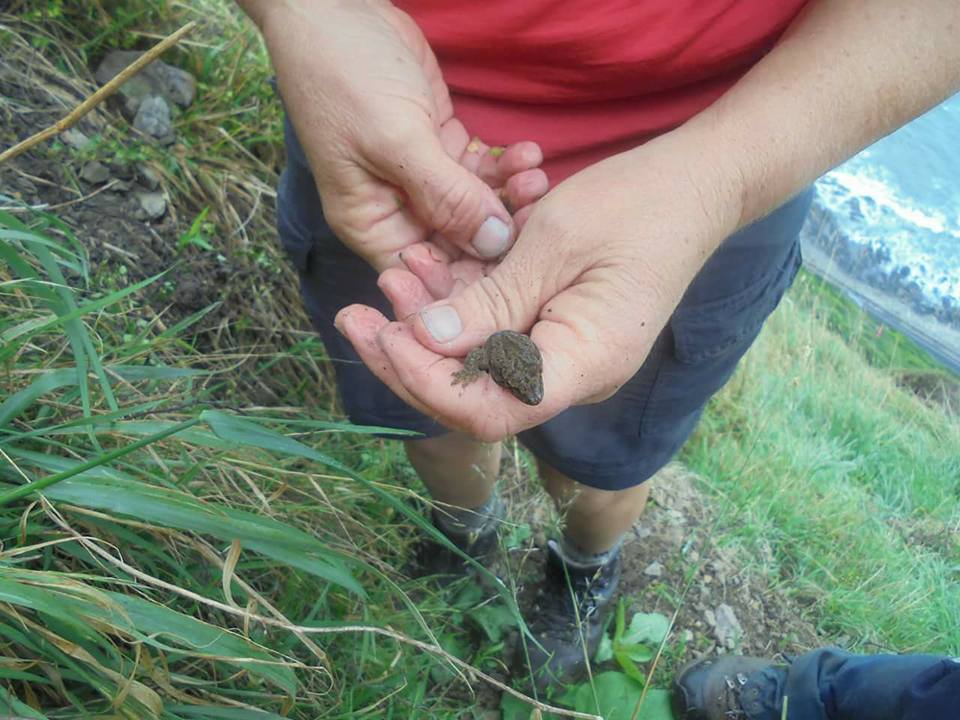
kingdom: Animalia
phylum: Chordata
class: Squamata
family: Diplodactylidae
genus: Woodworthia
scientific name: Woodworthia maculata
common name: Raukawa gecko
